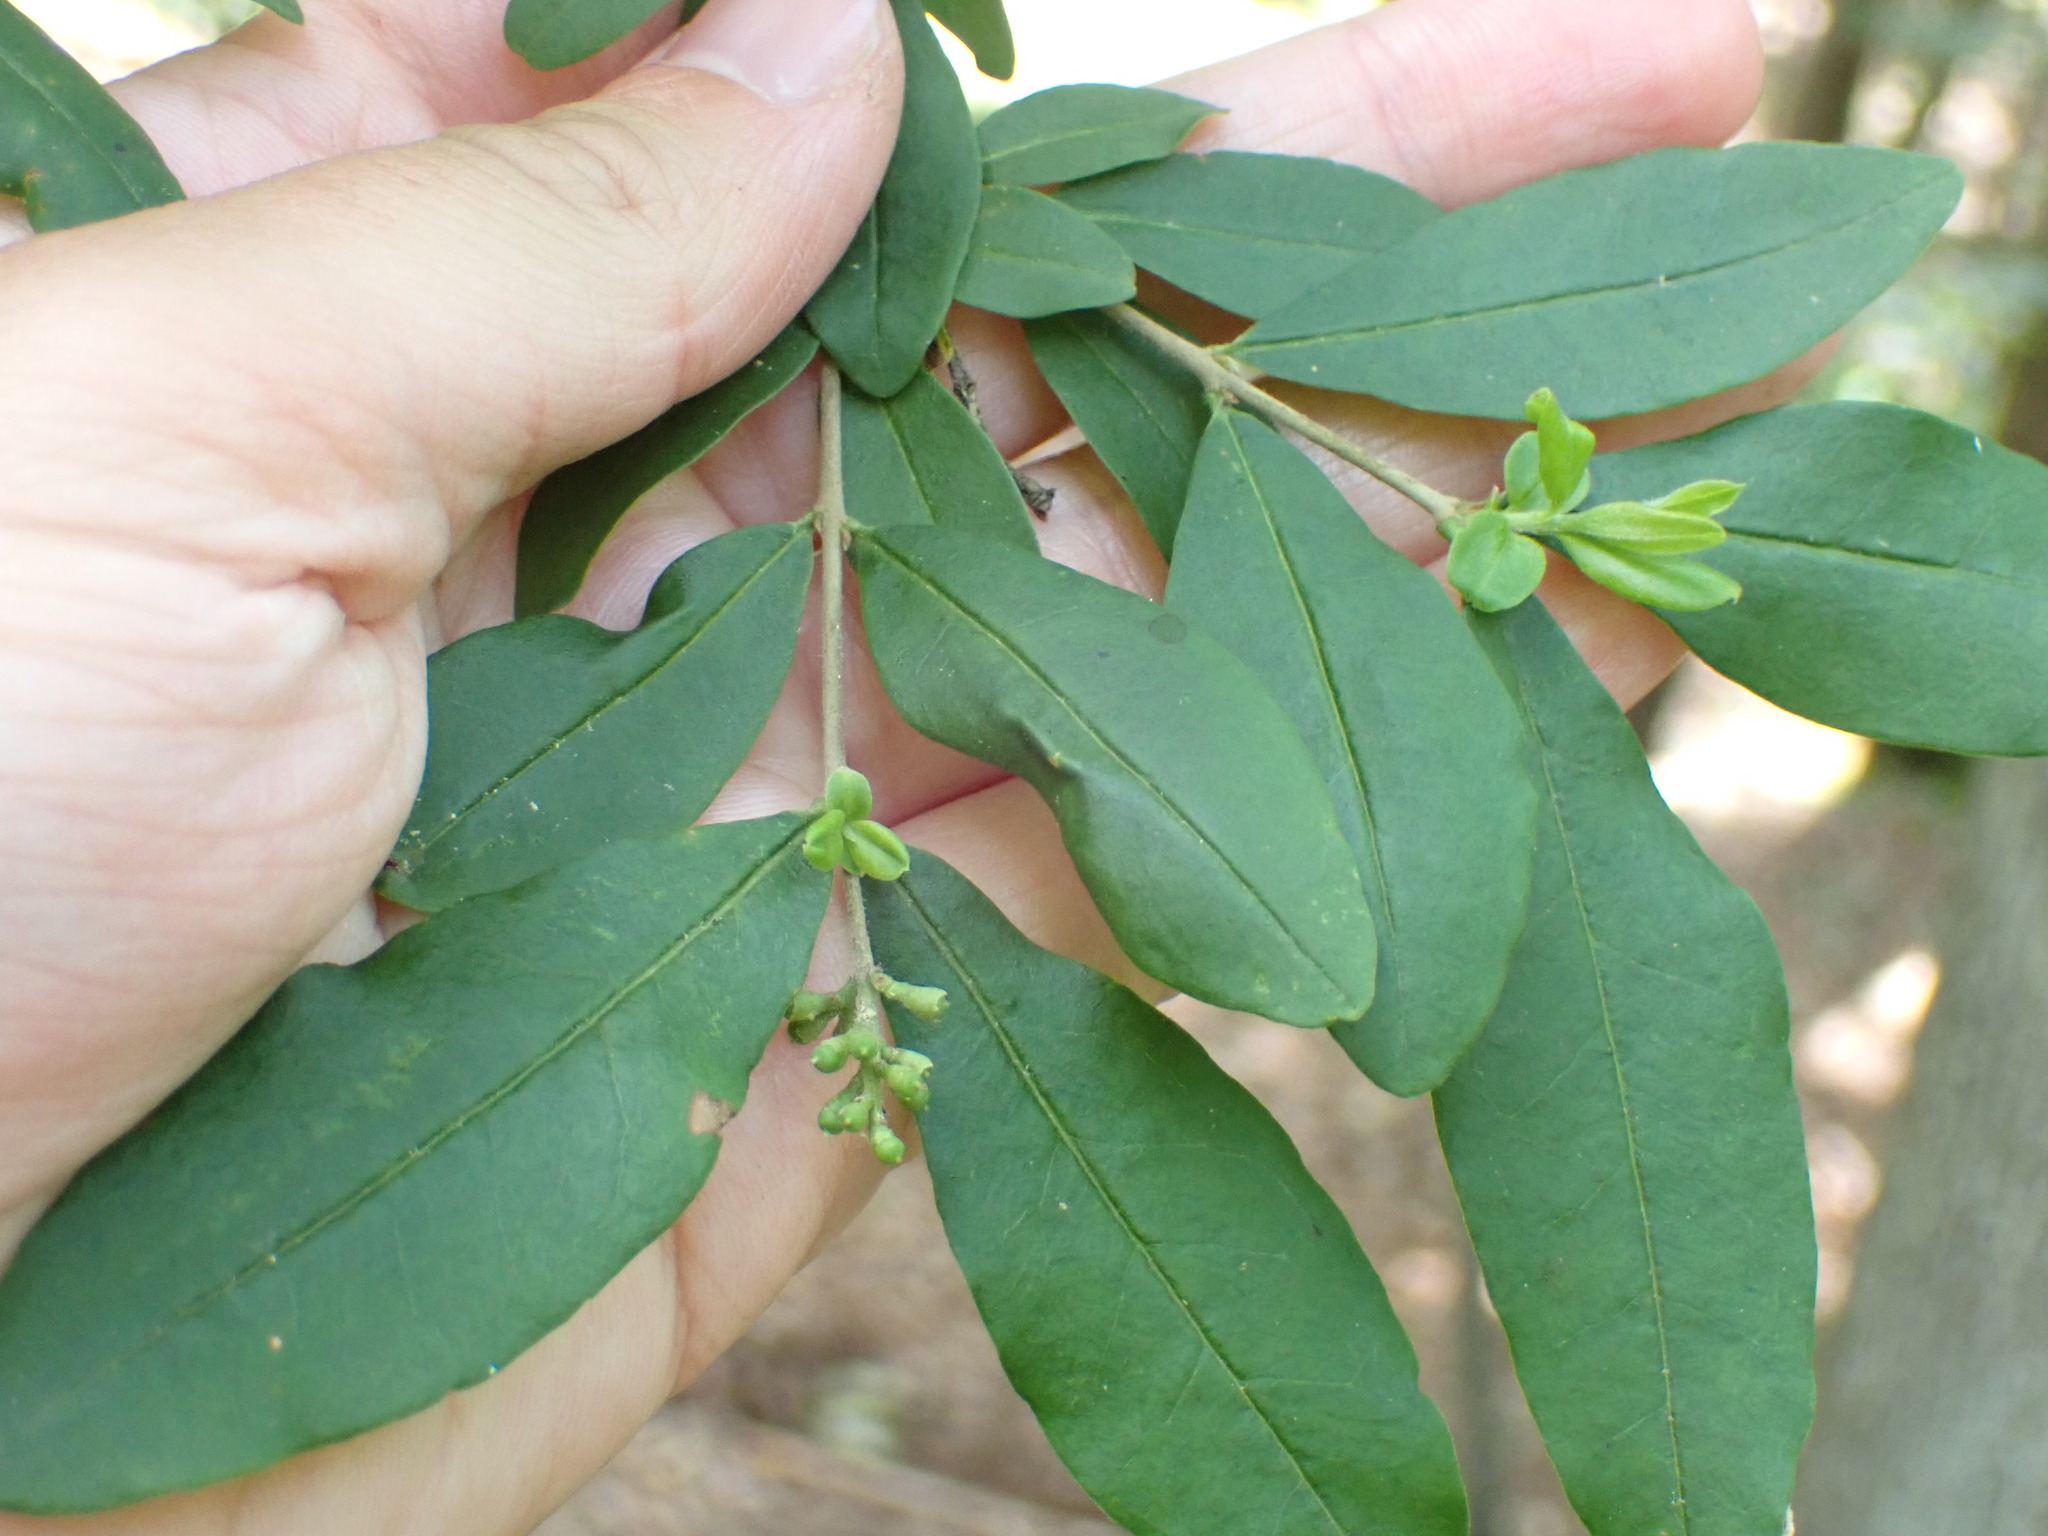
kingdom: Plantae
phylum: Tracheophyta
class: Magnoliopsida
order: Lamiales
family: Oleaceae
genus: Ligustrum
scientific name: Ligustrum obtusifolium
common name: Border privet
